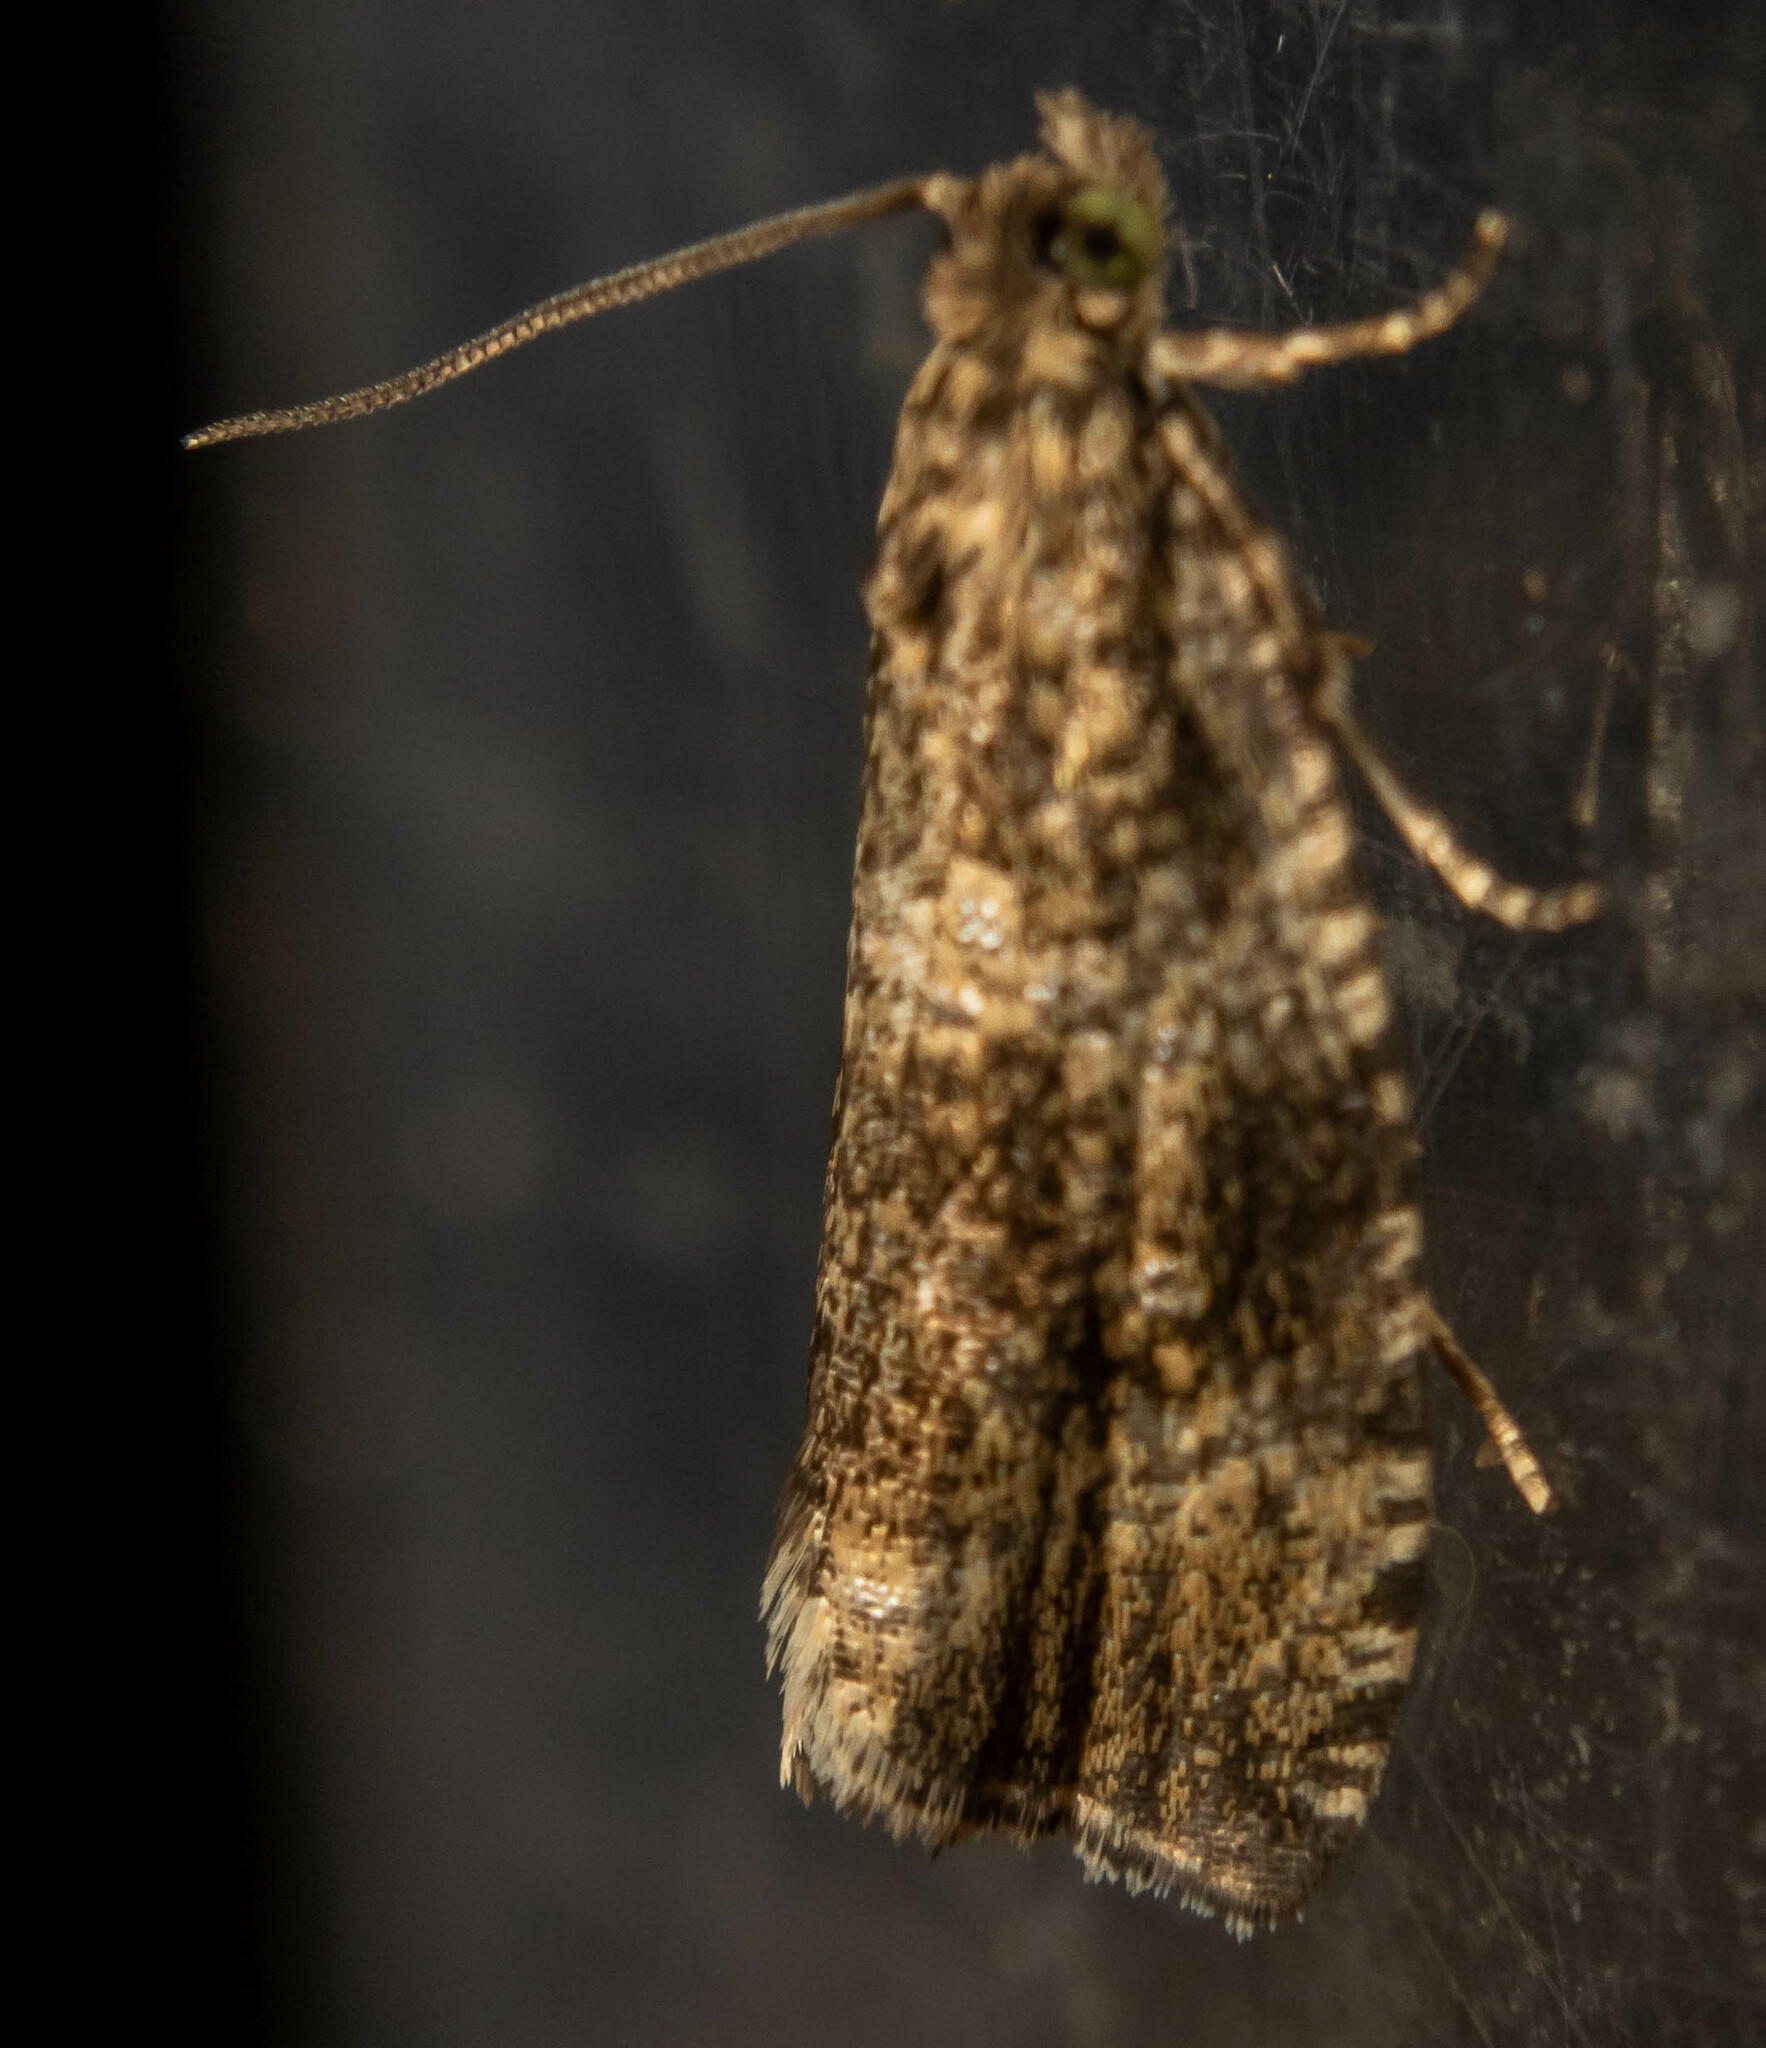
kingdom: Animalia
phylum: Arthropoda
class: Insecta
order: Lepidoptera
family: Tortricidae
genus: Syricoris
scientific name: Syricoris lacunana
